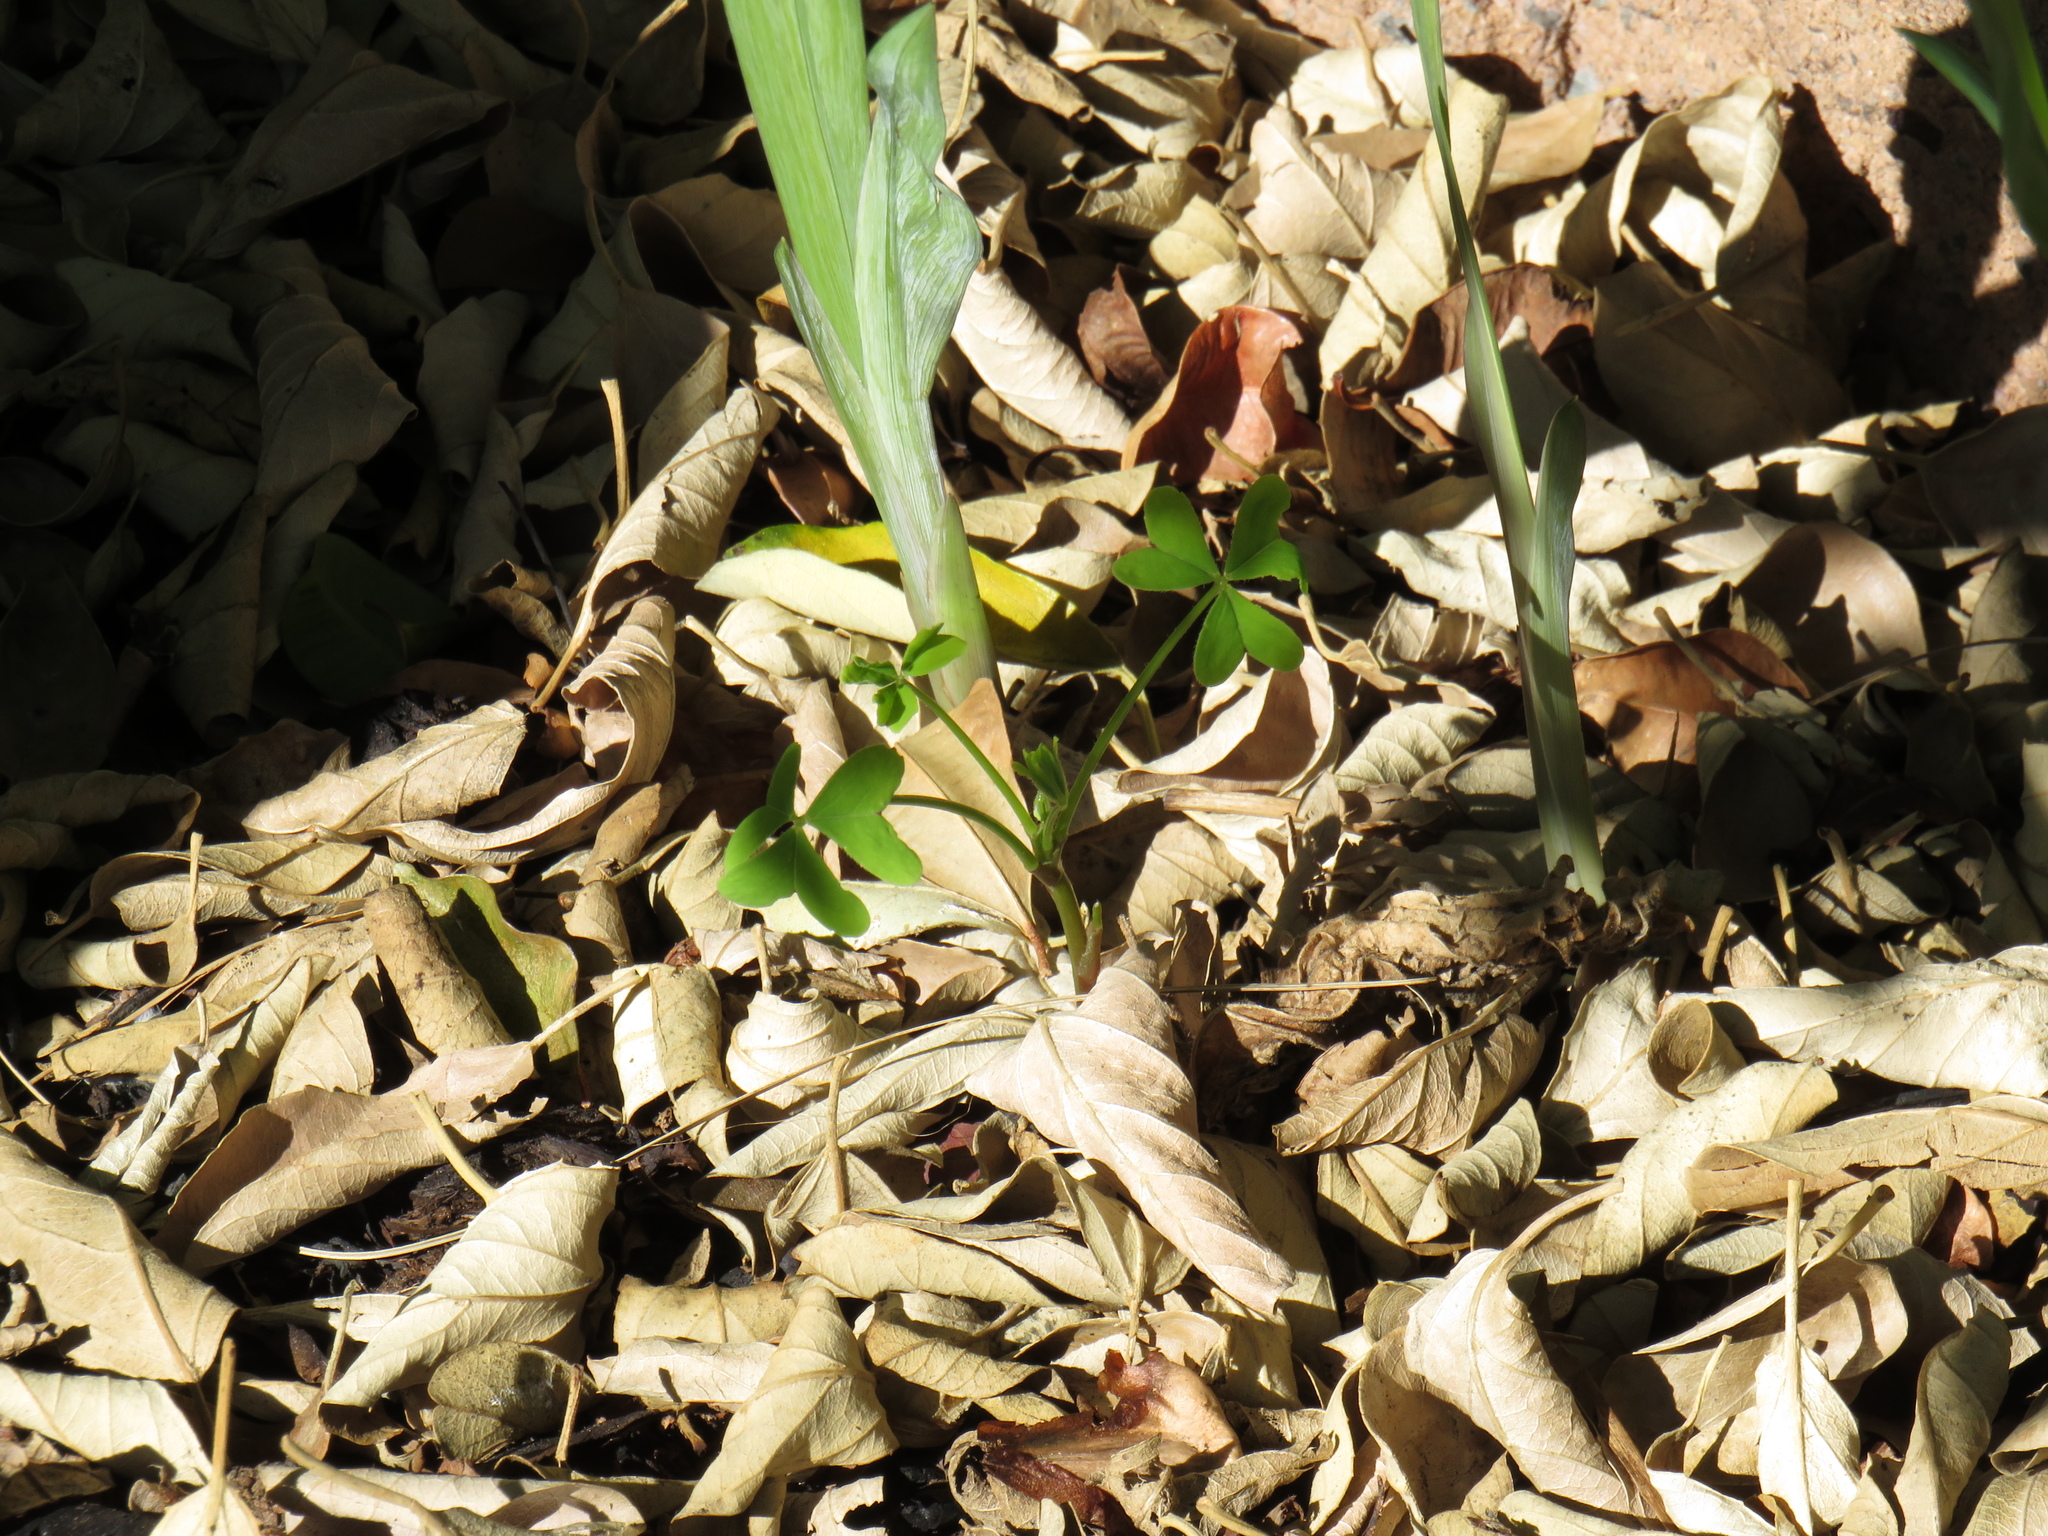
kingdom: Plantae
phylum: Tracheophyta
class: Magnoliopsida
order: Oxalidales
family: Oxalidaceae
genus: Oxalis
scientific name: Oxalis pes-caprae
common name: Bermuda-buttercup
